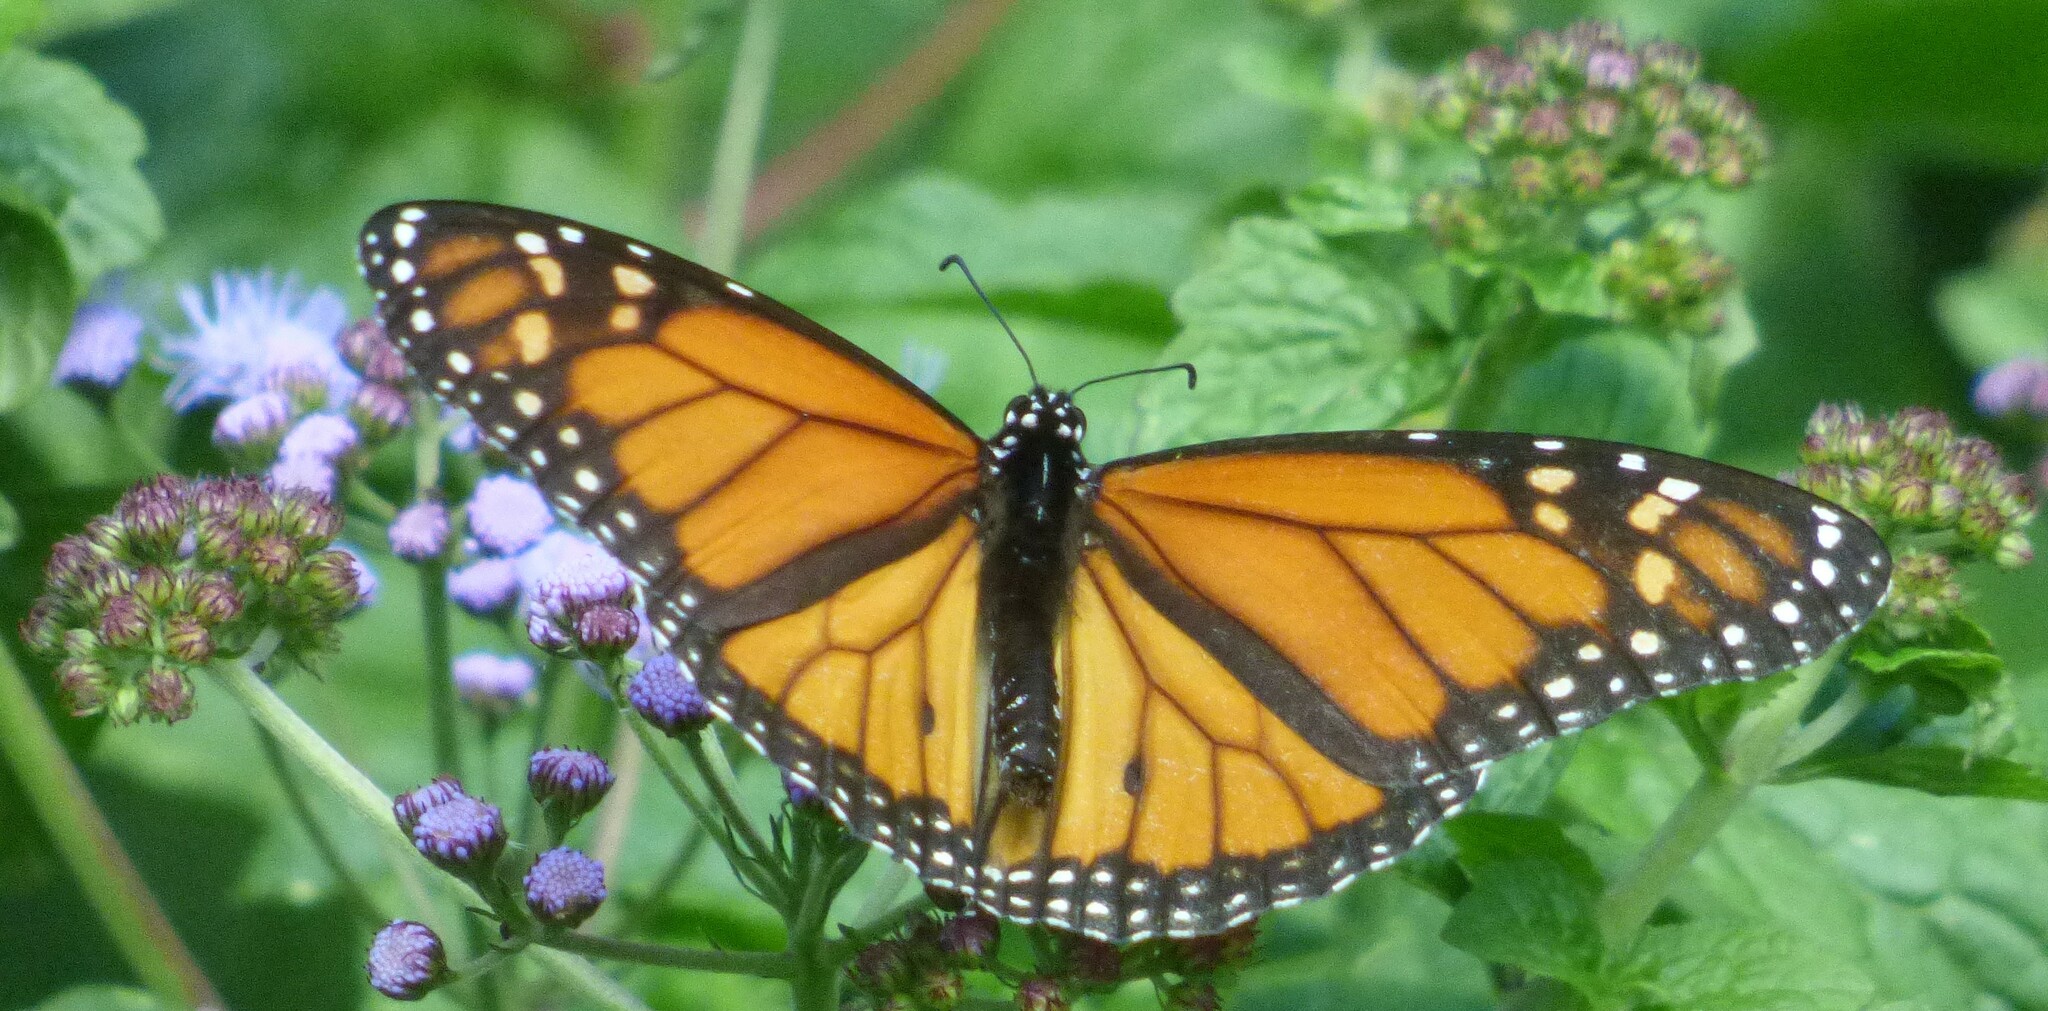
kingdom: Animalia
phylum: Arthropoda
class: Insecta
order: Lepidoptera
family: Nymphalidae
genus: Danaus
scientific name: Danaus plexippus
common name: Monarch
